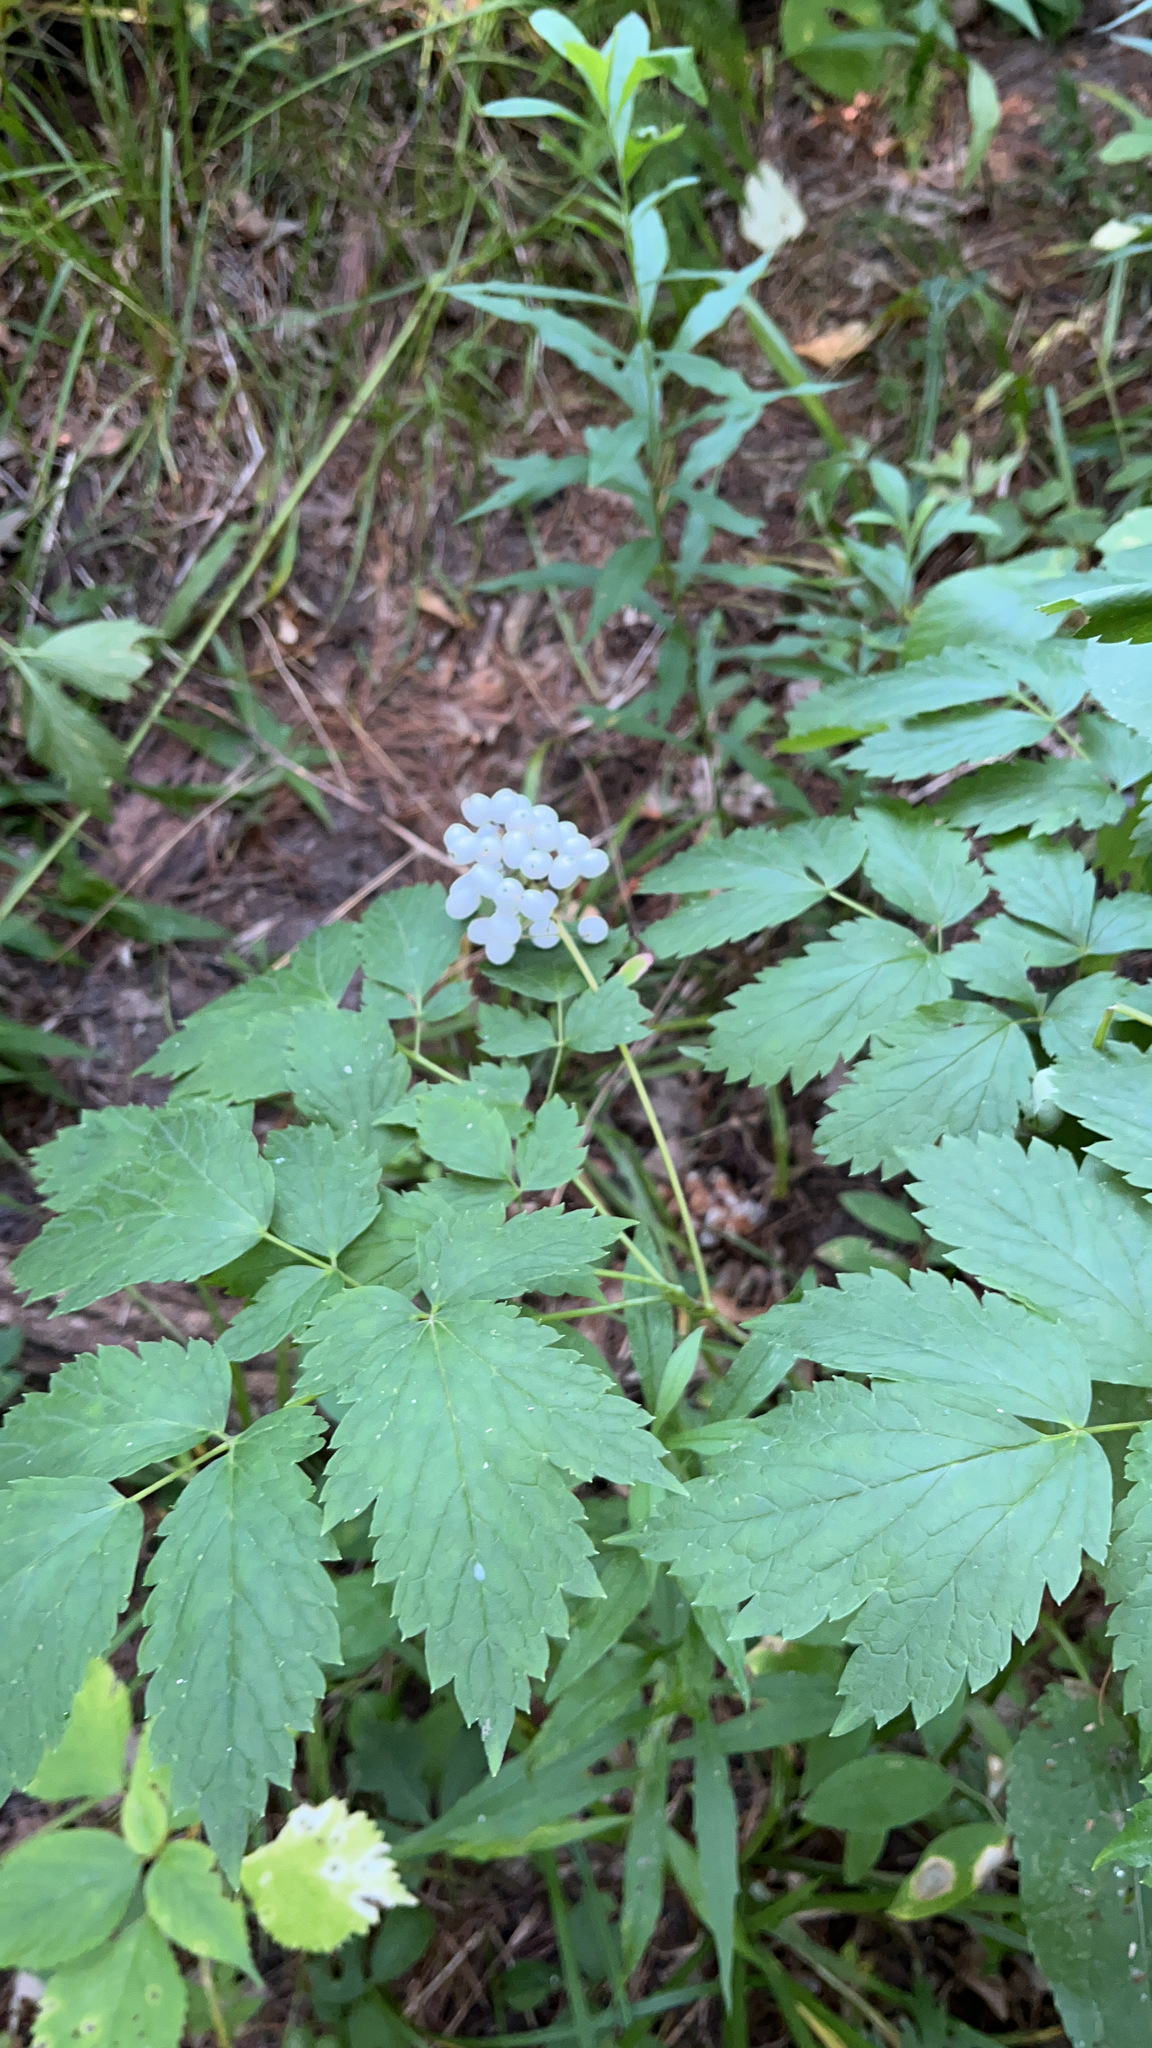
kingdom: Plantae
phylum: Tracheophyta
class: Magnoliopsida
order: Ranunculales
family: Ranunculaceae
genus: Actaea
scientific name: Actaea rubra
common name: Red baneberry
